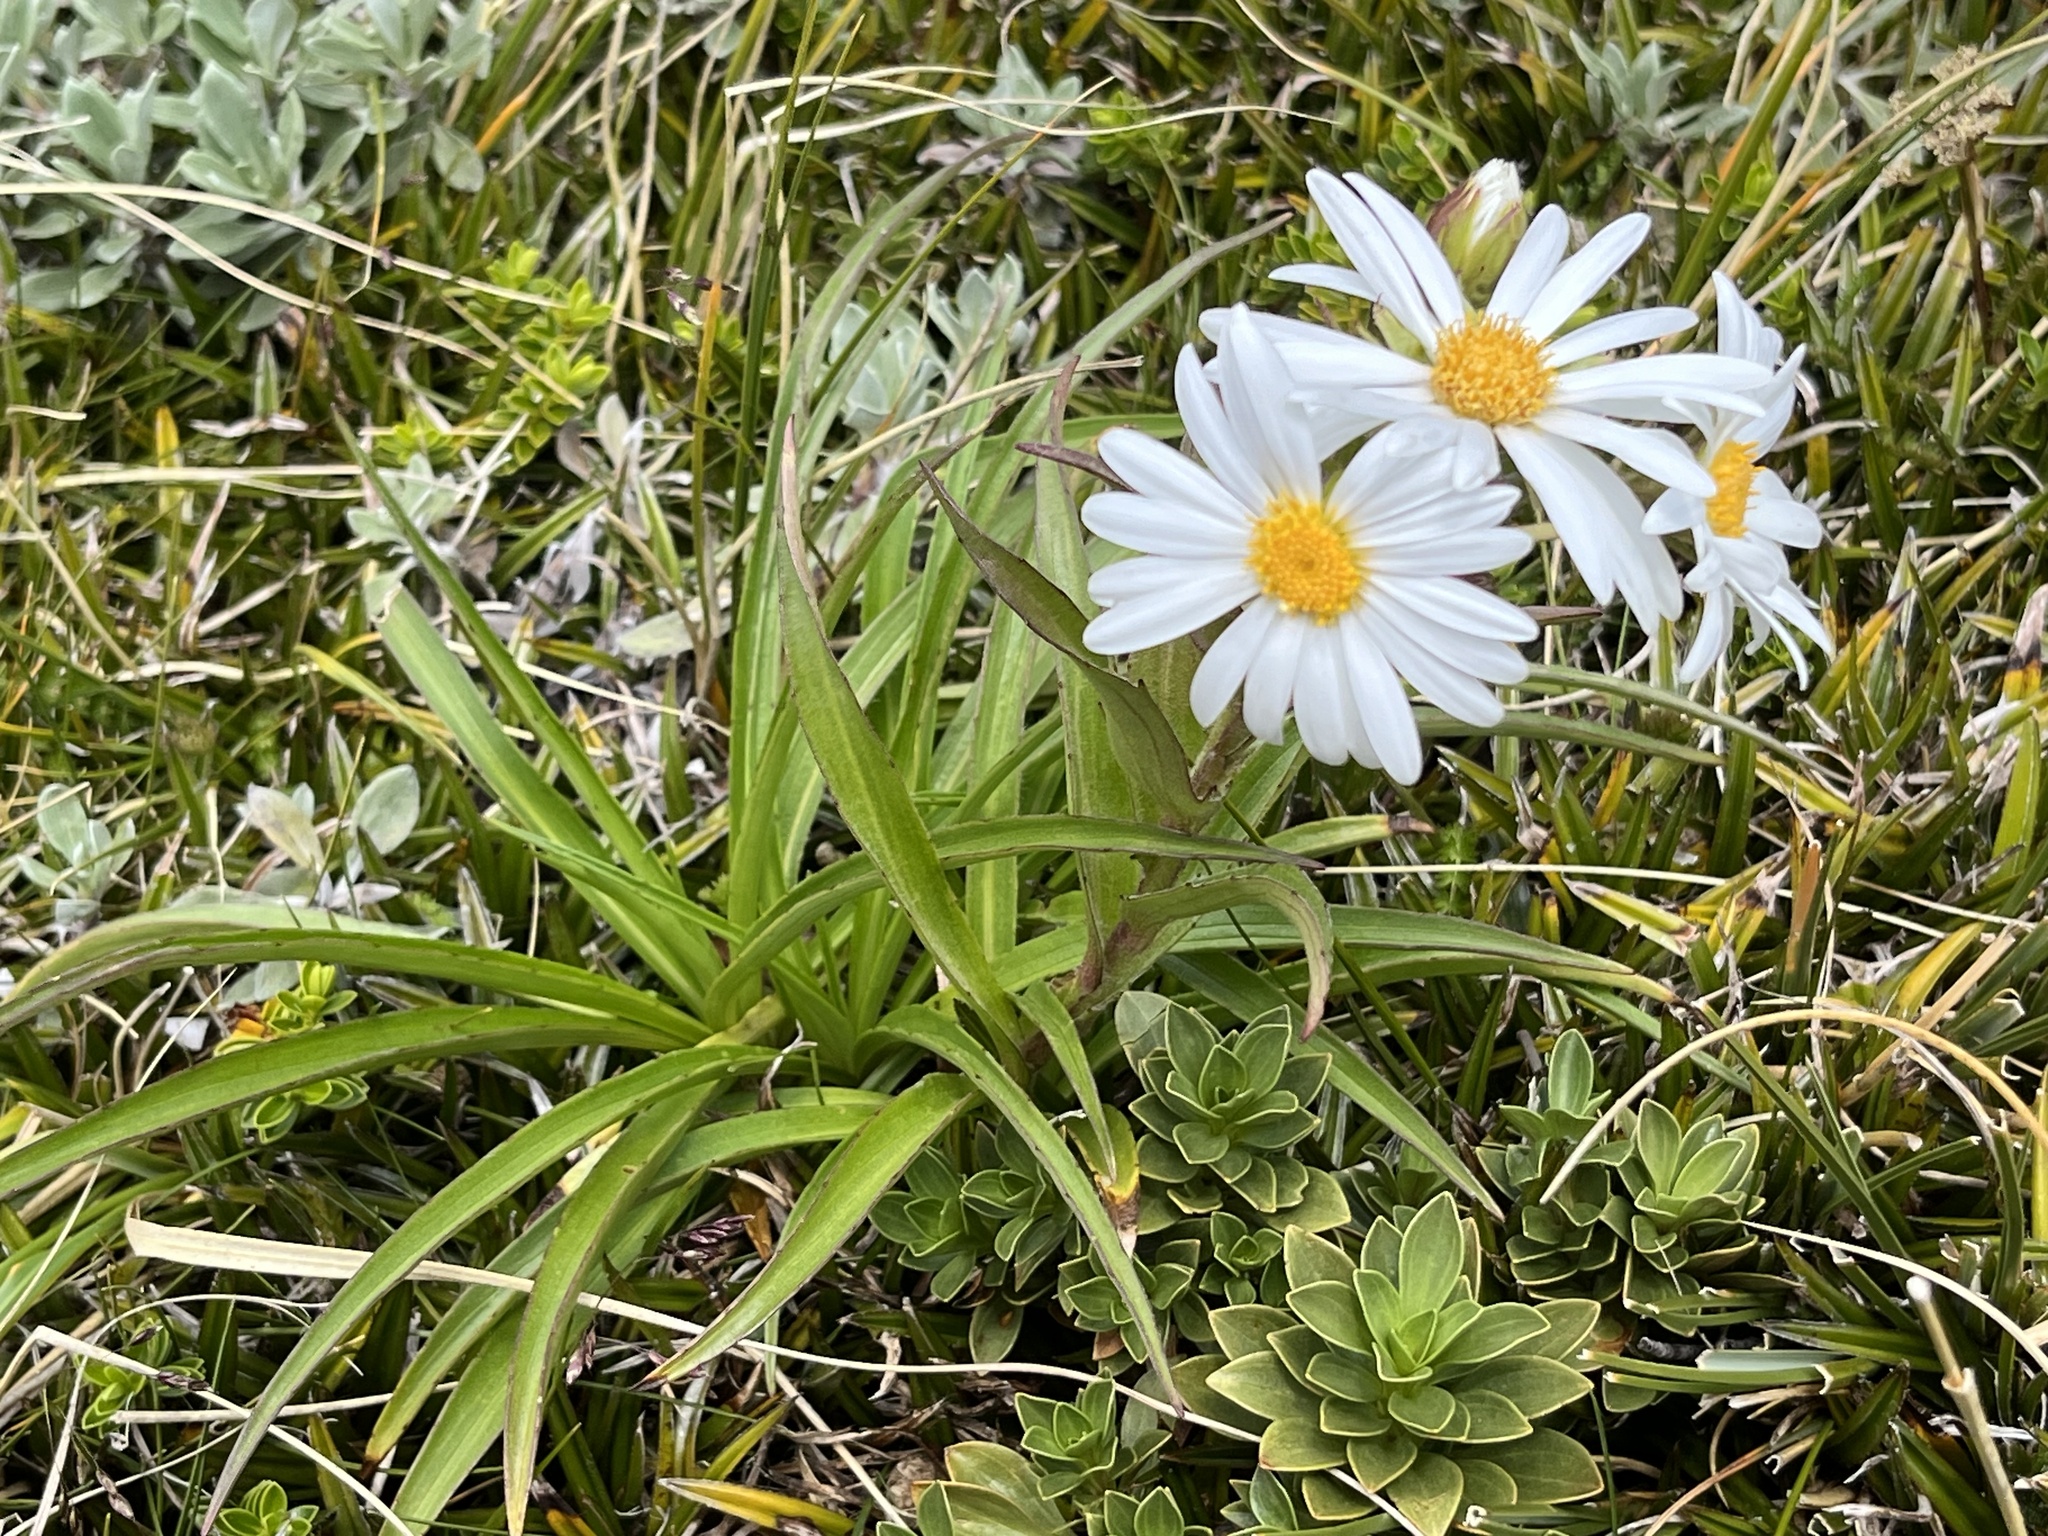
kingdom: Plantae
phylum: Tracheophyta
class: Magnoliopsida
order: Asterales
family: Asteraceae
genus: Dolichoglottis
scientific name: Dolichoglottis scorzoneroides
